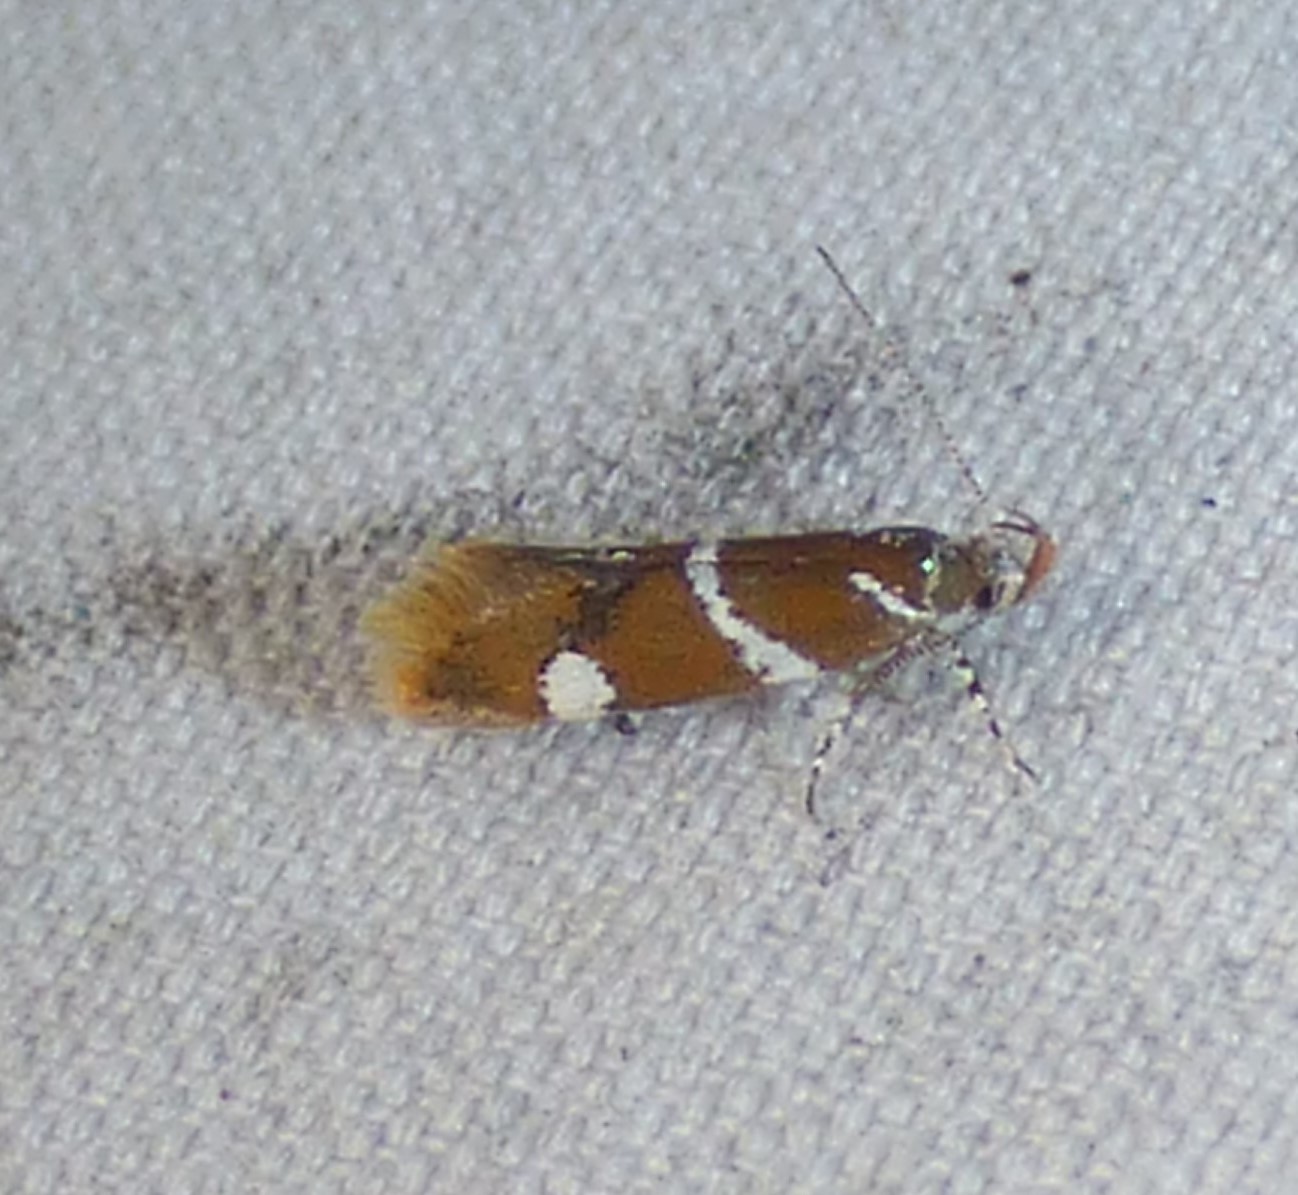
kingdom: Animalia
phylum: Arthropoda
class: Insecta
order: Lepidoptera
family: Oecophoridae
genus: Promalactis
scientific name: Promalactis suzukiella
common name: Moth
